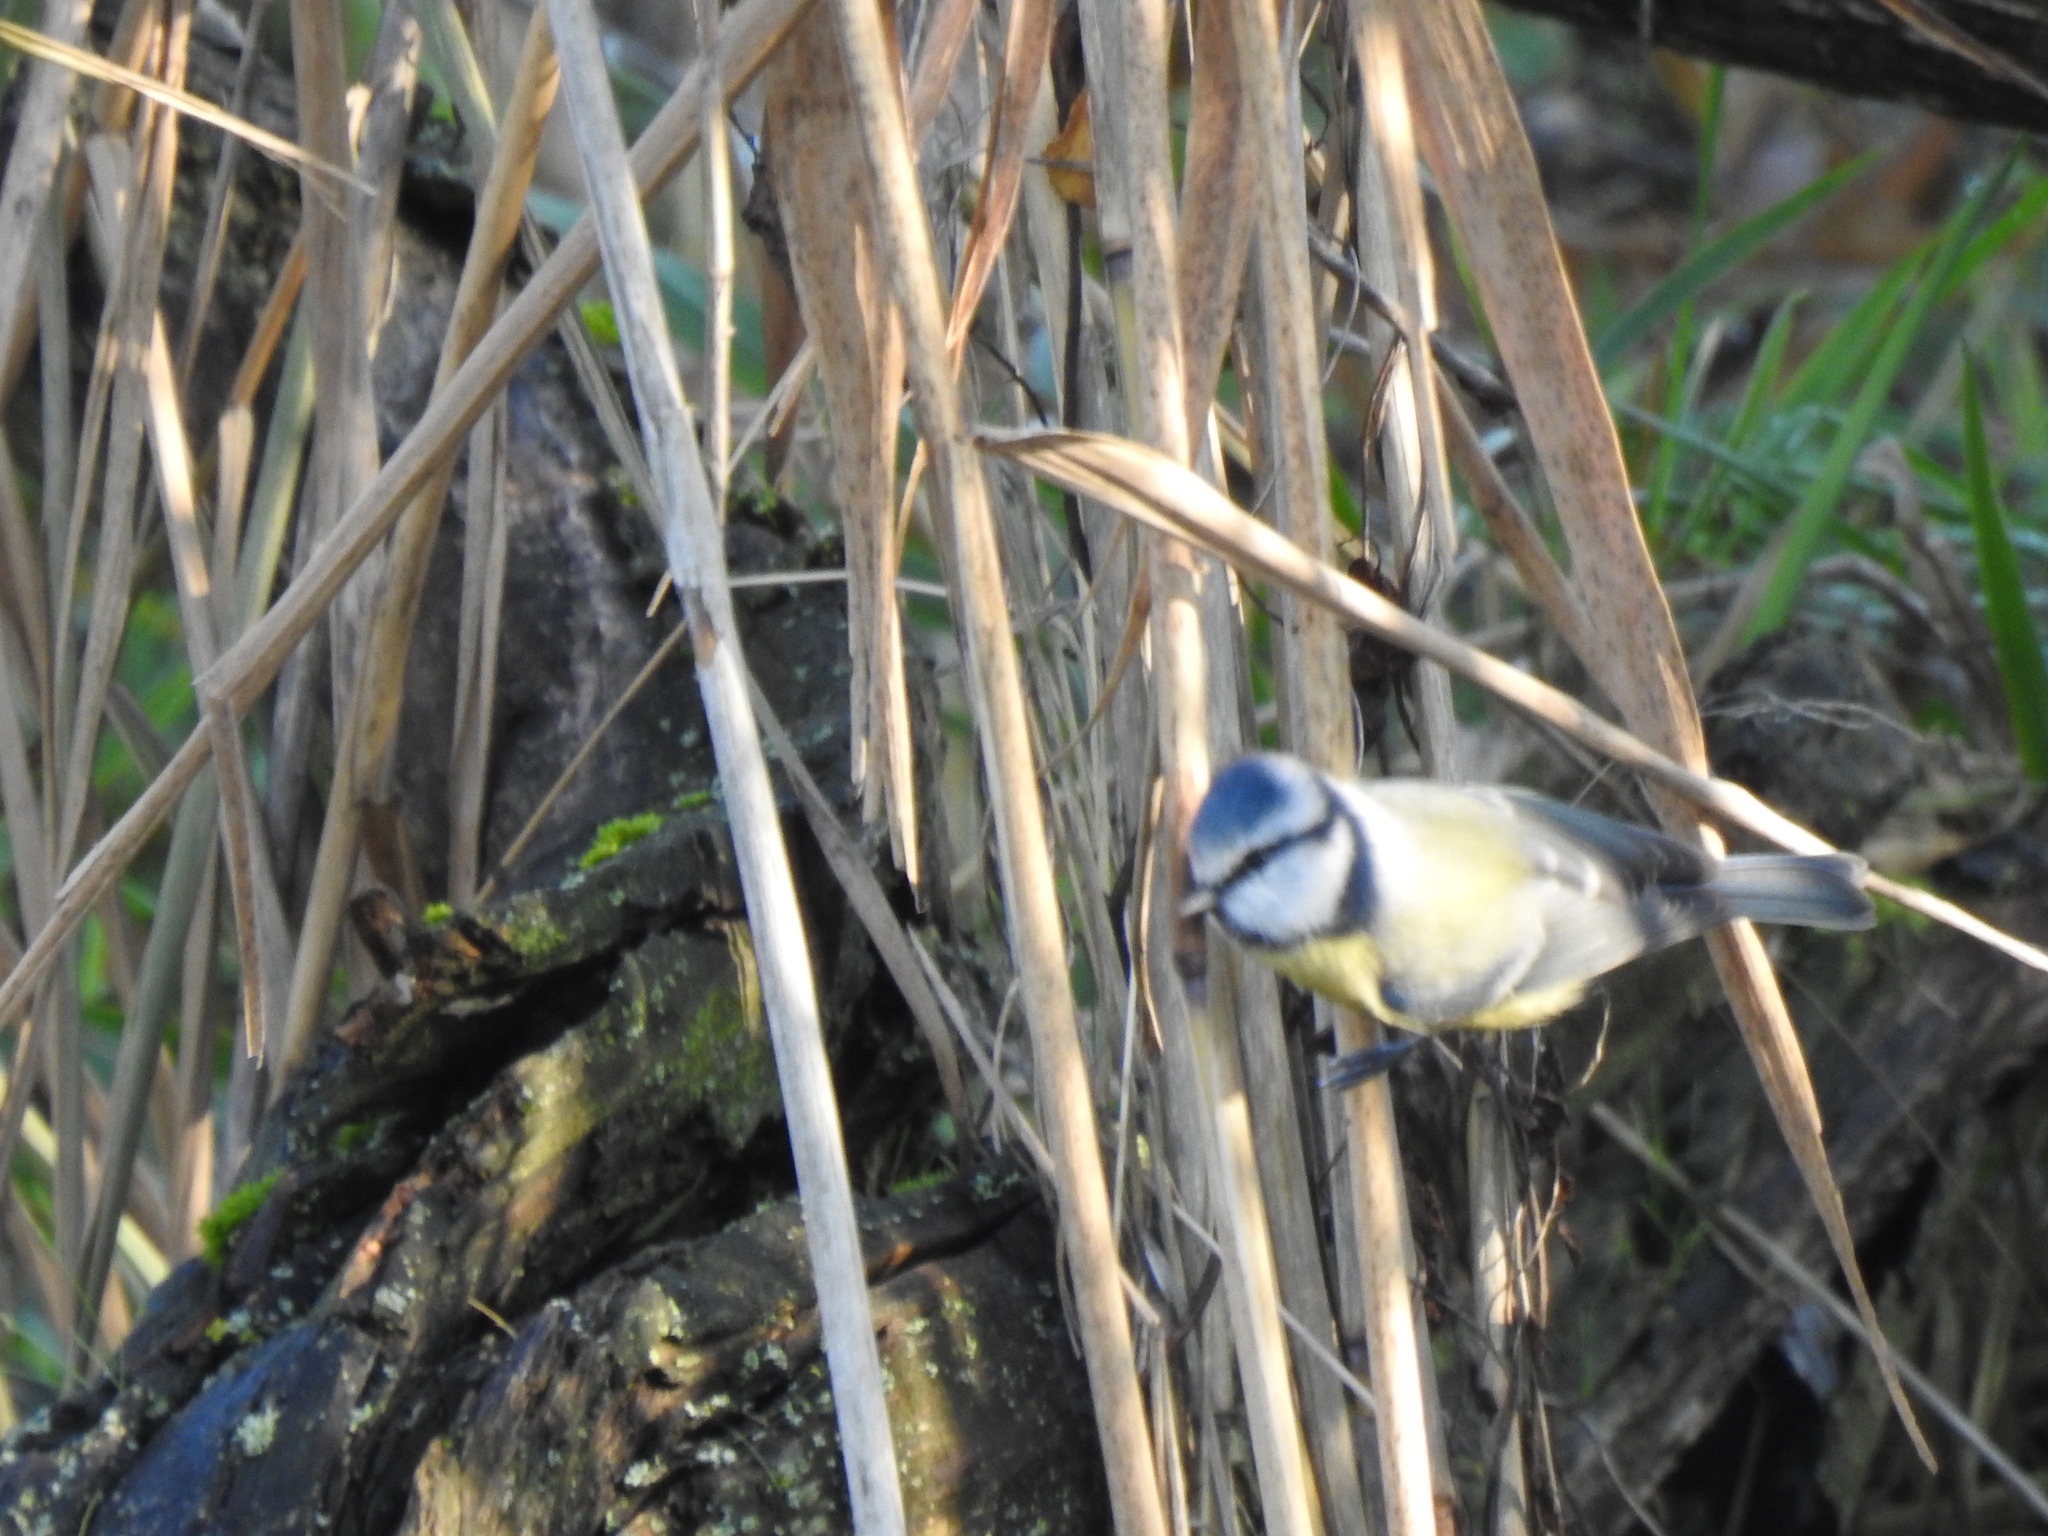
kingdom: Animalia
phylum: Chordata
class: Aves
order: Passeriformes
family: Paridae
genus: Cyanistes
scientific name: Cyanistes caeruleus
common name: Eurasian blue tit
